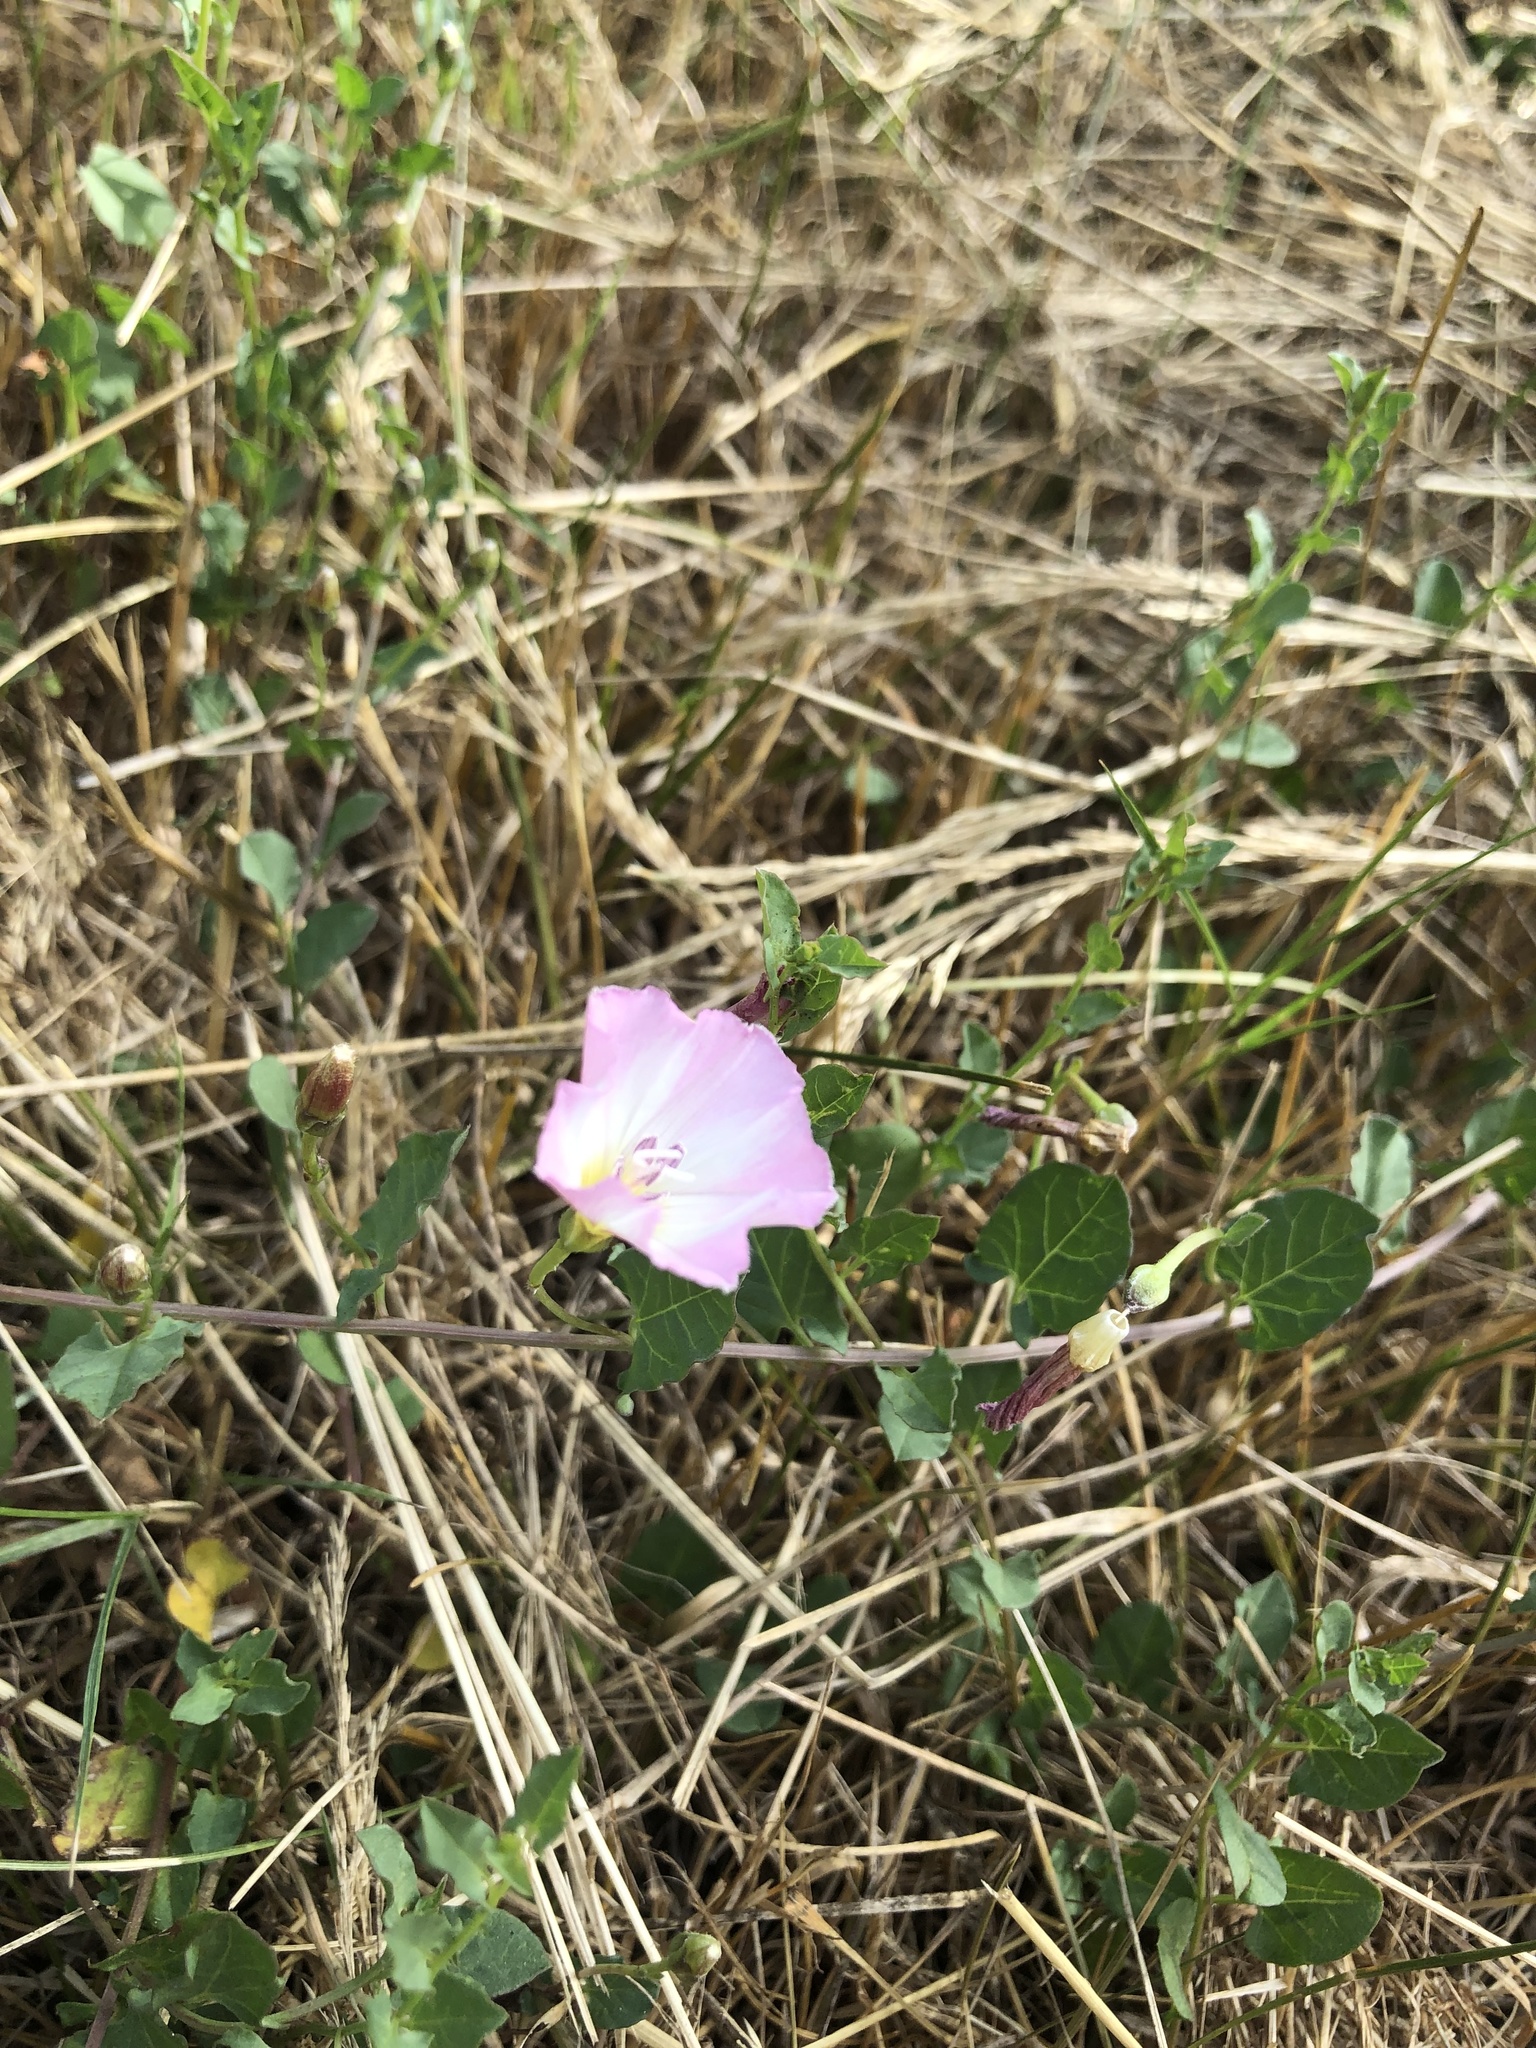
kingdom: Plantae
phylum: Tracheophyta
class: Magnoliopsida
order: Solanales
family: Convolvulaceae
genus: Convolvulus
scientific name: Convolvulus arvensis
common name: Field bindweed
